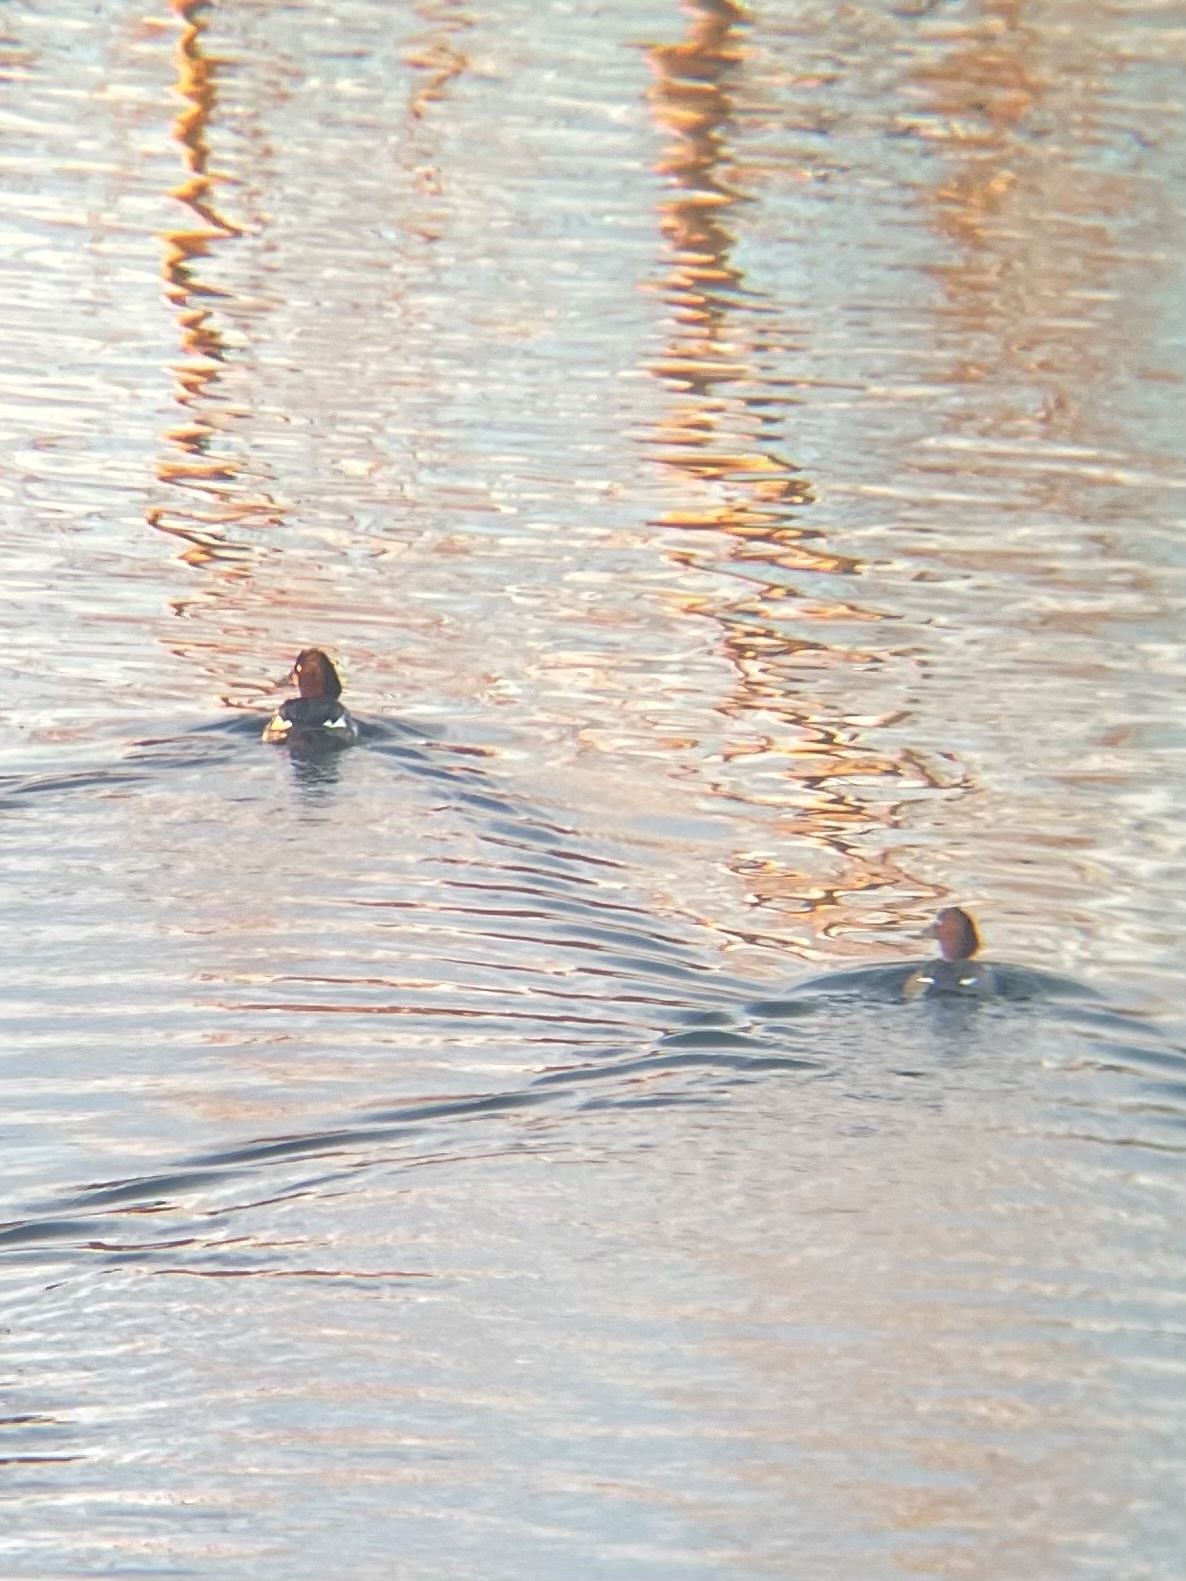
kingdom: Animalia
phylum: Chordata
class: Aves
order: Anseriformes
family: Anatidae
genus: Bucephala
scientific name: Bucephala clangula
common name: Common goldeneye
